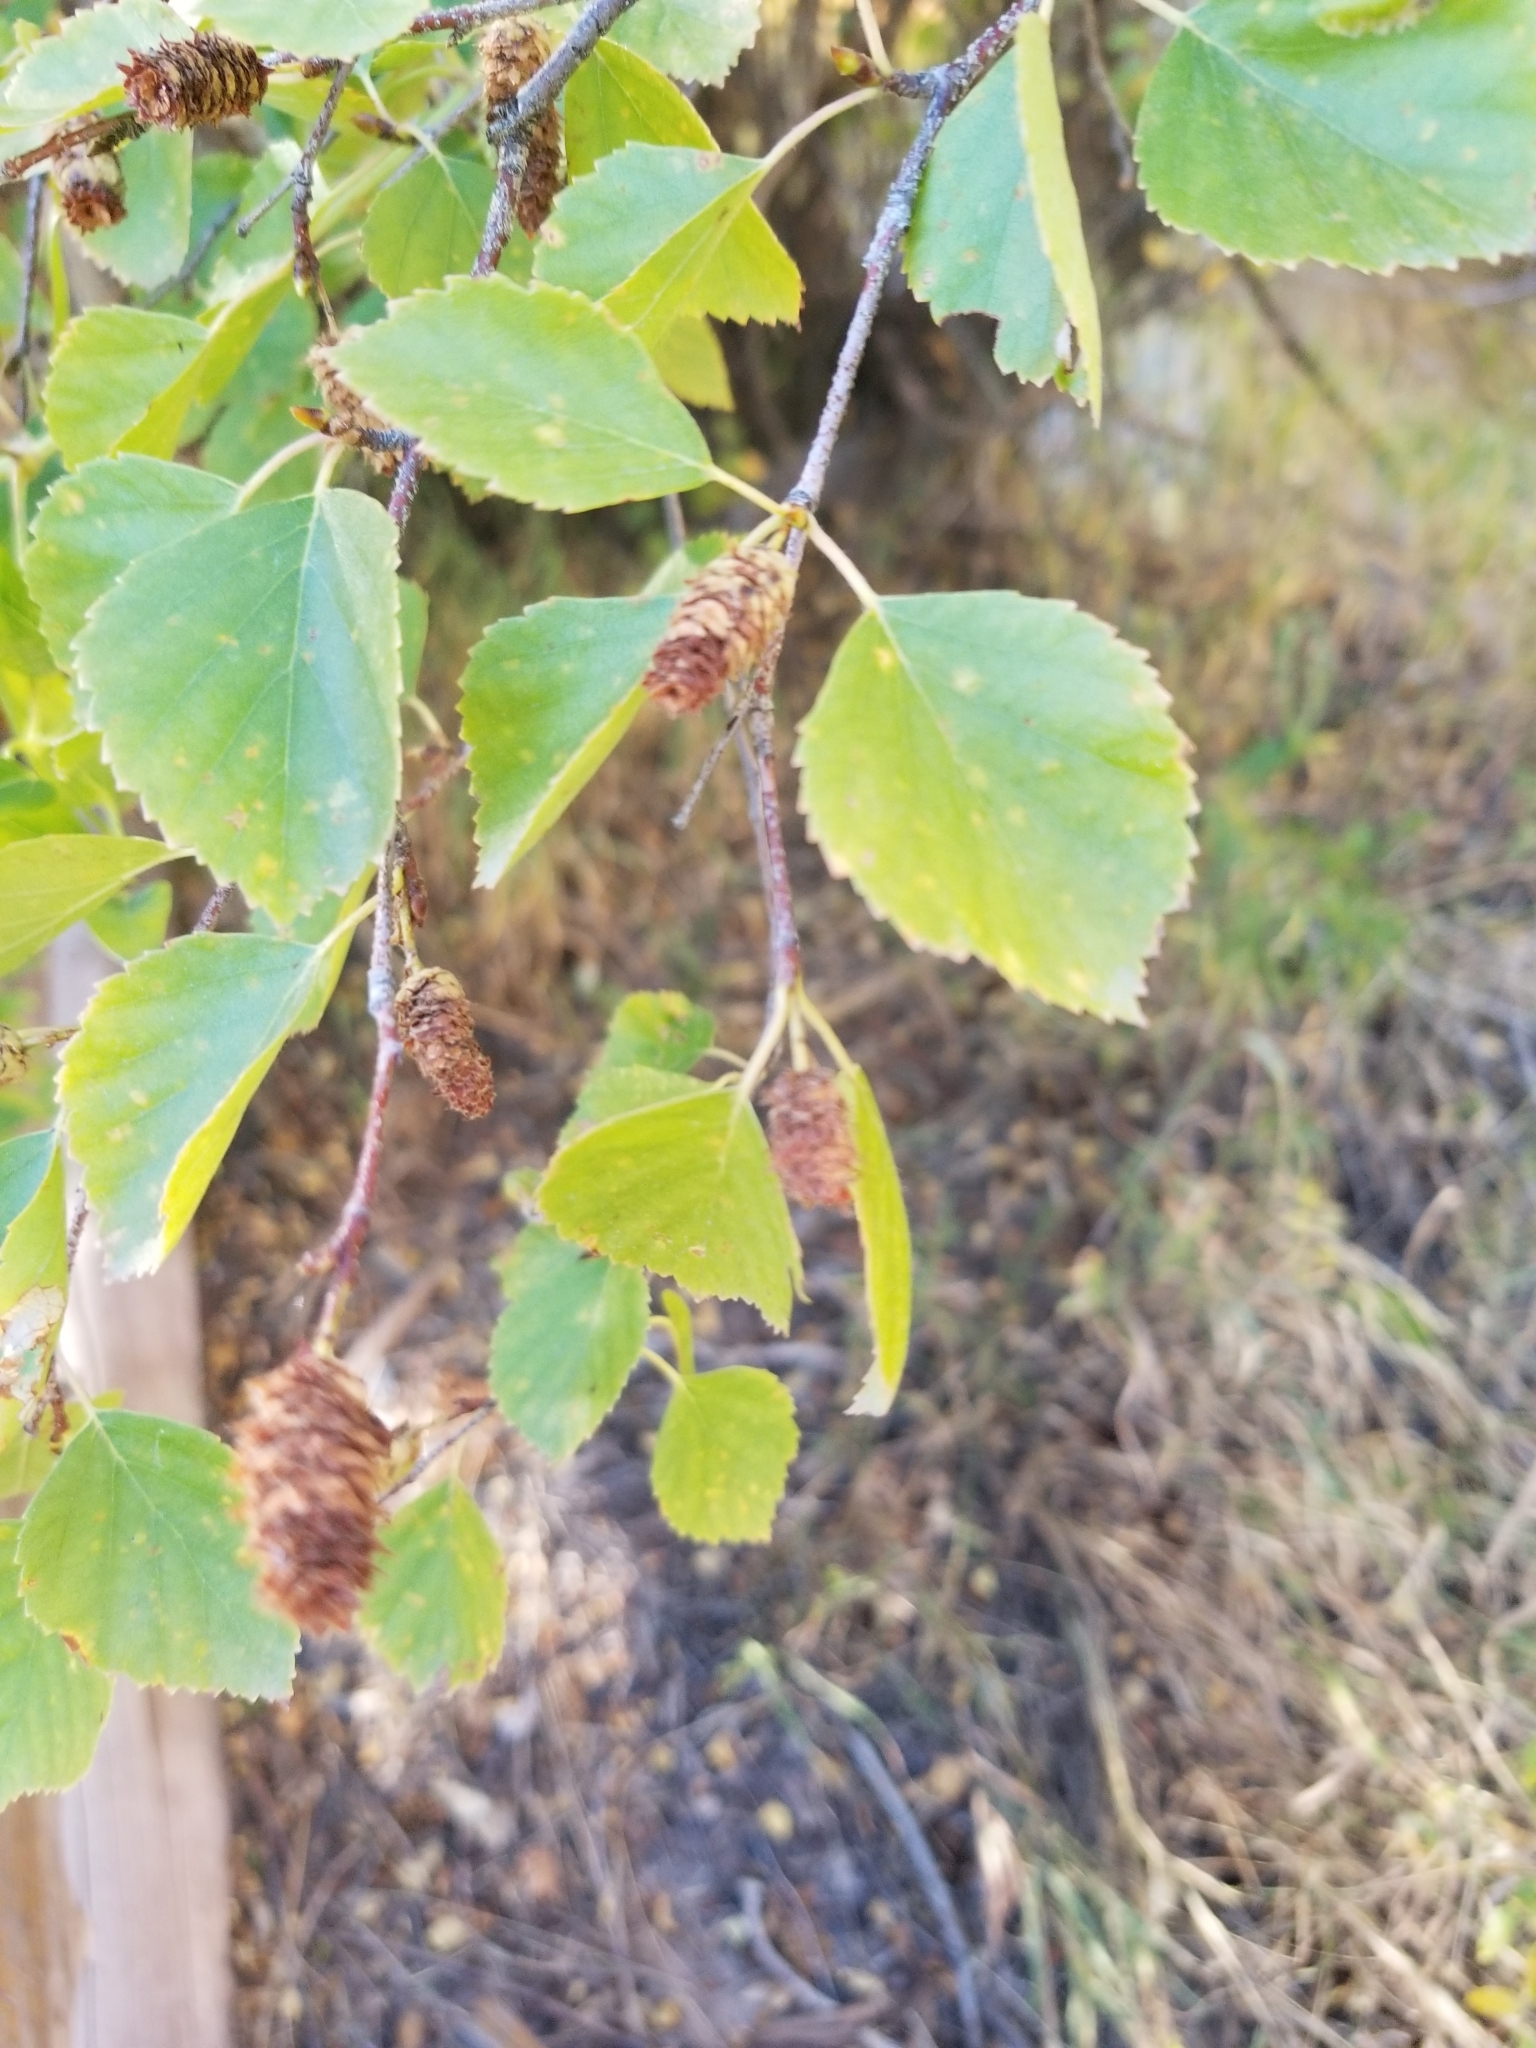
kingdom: Plantae
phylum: Tracheophyta
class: Magnoliopsida
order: Fagales
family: Betulaceae
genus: Betula
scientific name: Betula occidentalis
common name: River birch
